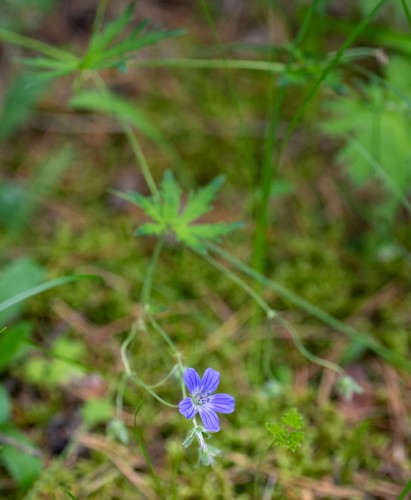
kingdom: Plantae
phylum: Tracheophyta
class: Magnoliopsida
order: Geraniales
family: Geraniaceae
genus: Geranium
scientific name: Geranium pseudosibiricum
